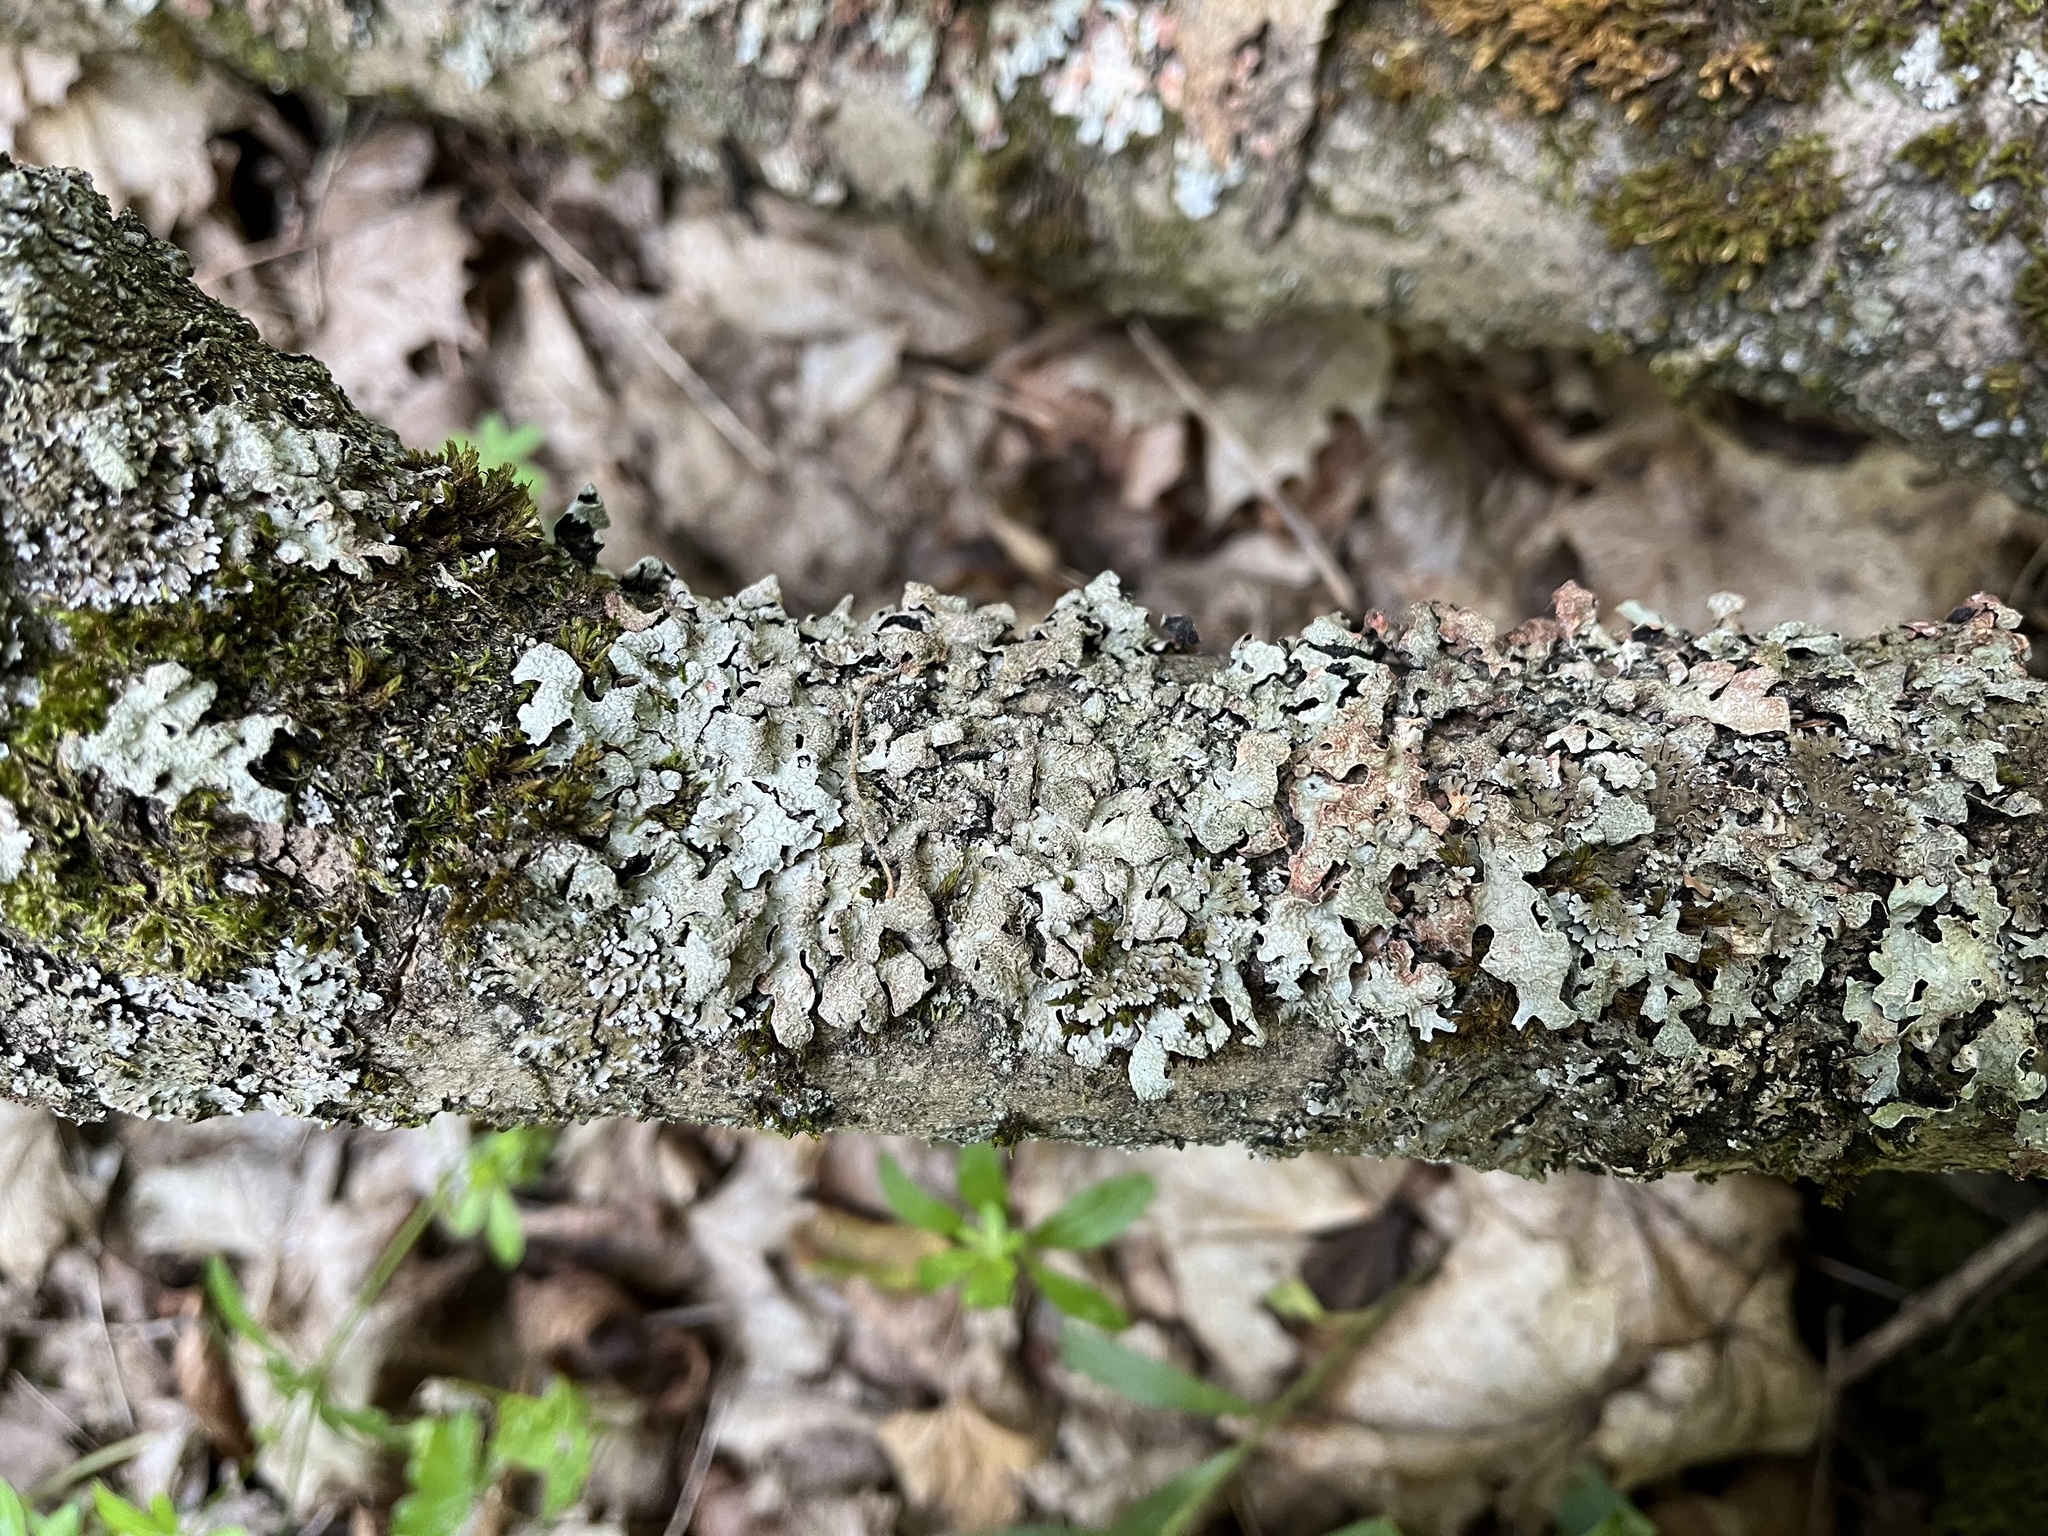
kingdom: Fungi
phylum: Ascomycota
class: Lecanoromycetes
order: Lecanorales
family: Parmeliaceae
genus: Parmelia
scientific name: Parmelia sulcata
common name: Netted shield lichen
